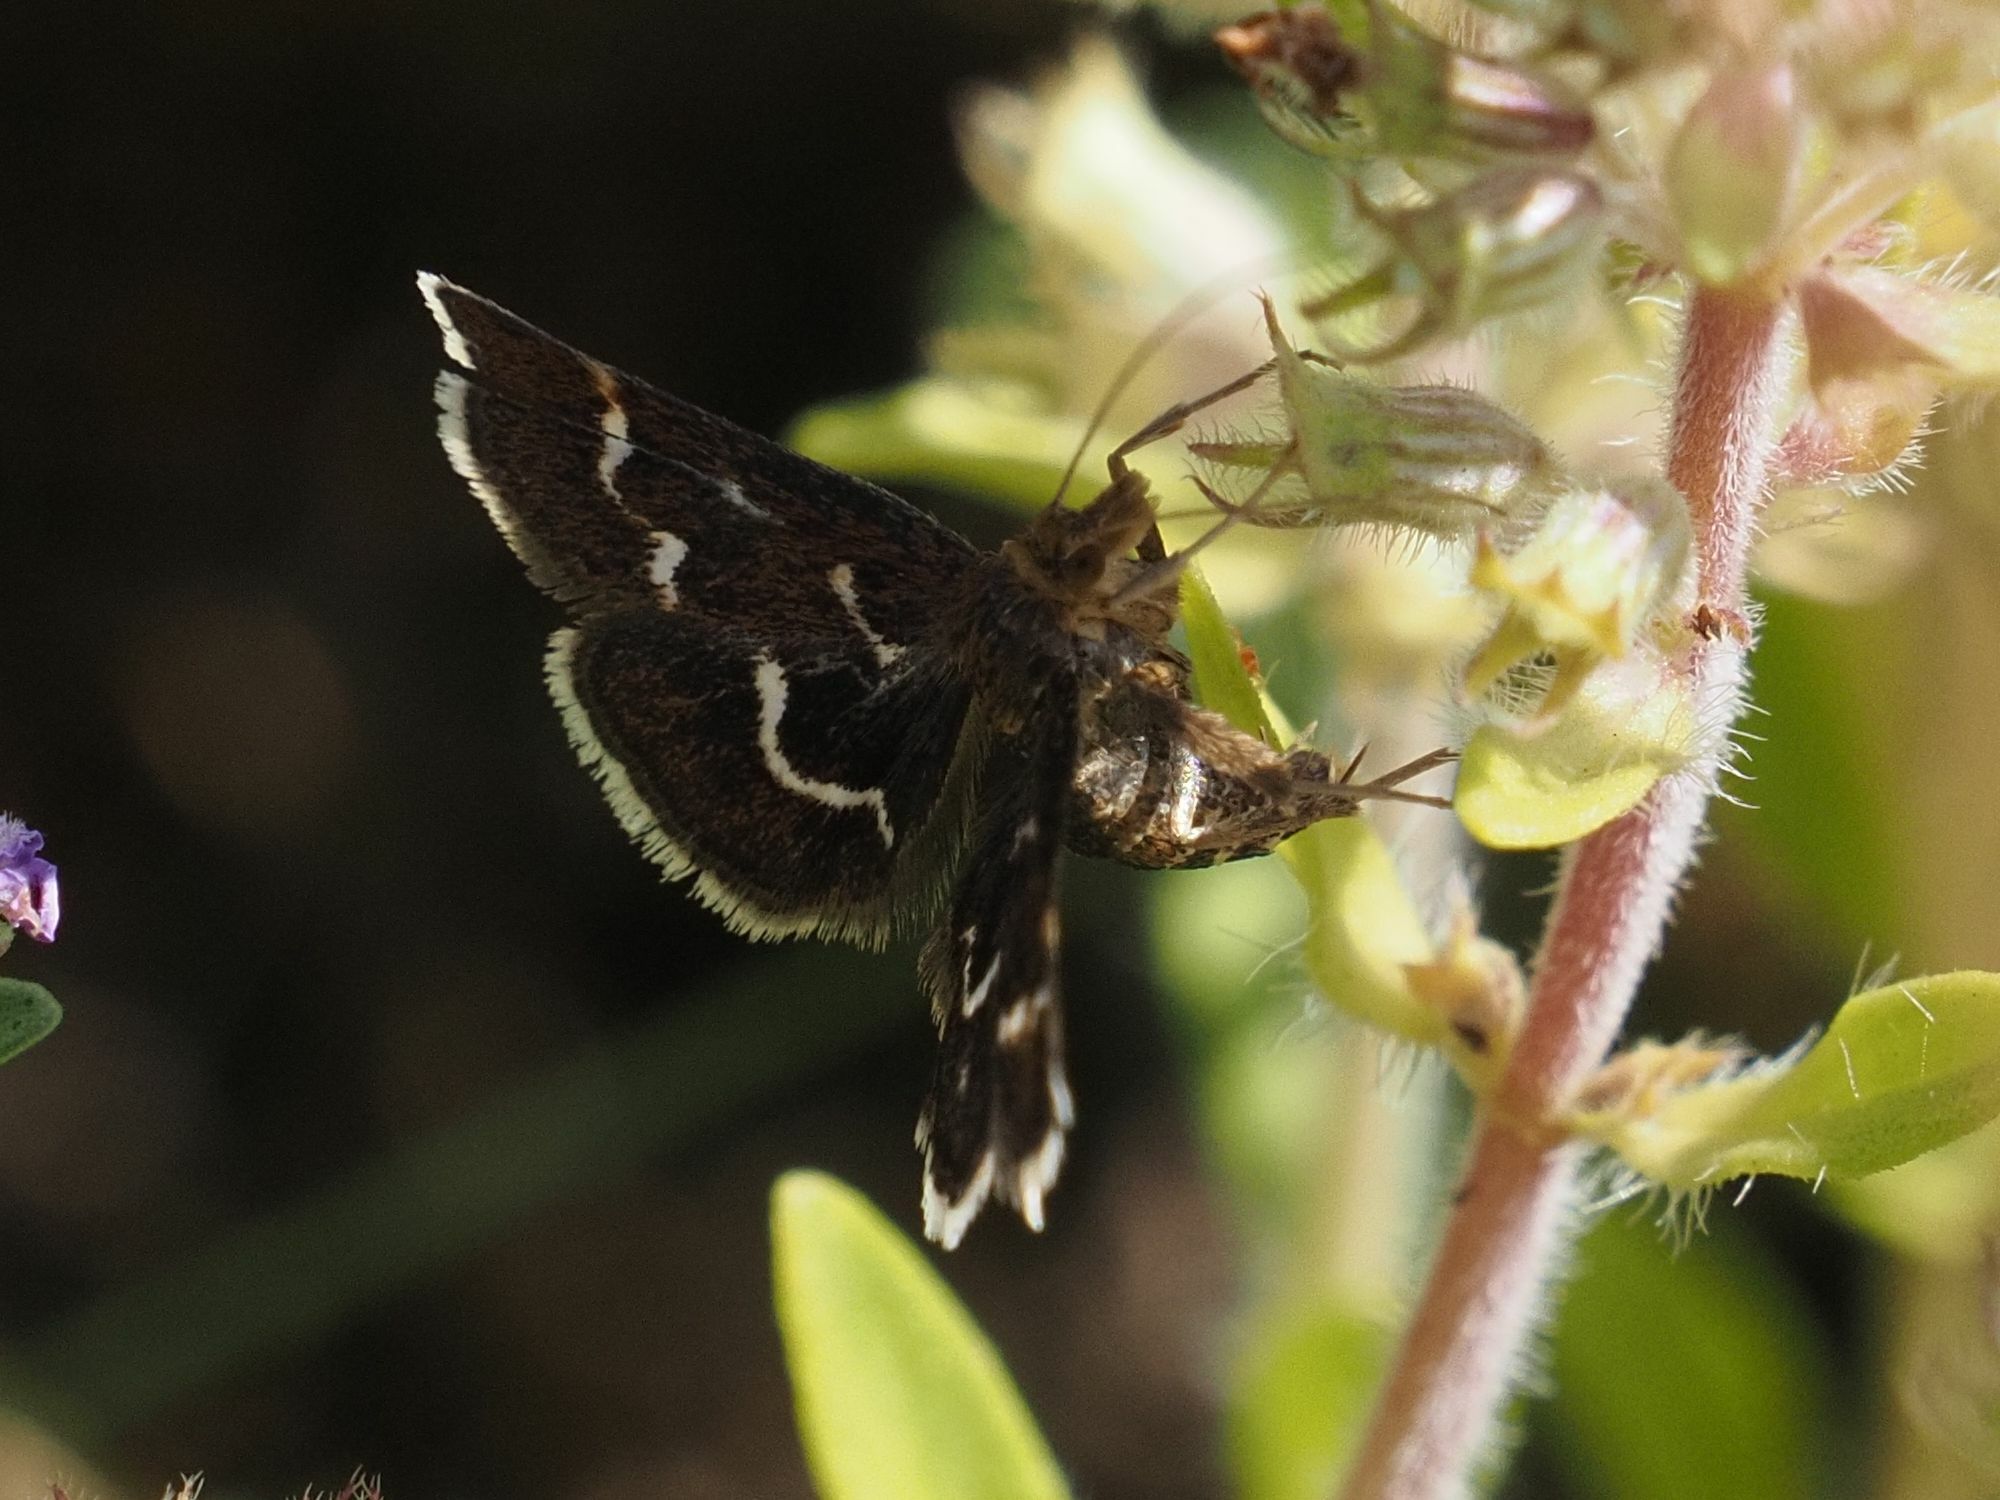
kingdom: Animalia
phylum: Arthropoda
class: Insecta
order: Lepidoptera
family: Crambidae
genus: Pyrausta
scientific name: Pyrausta nigrata
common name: Wavy-barred sable
